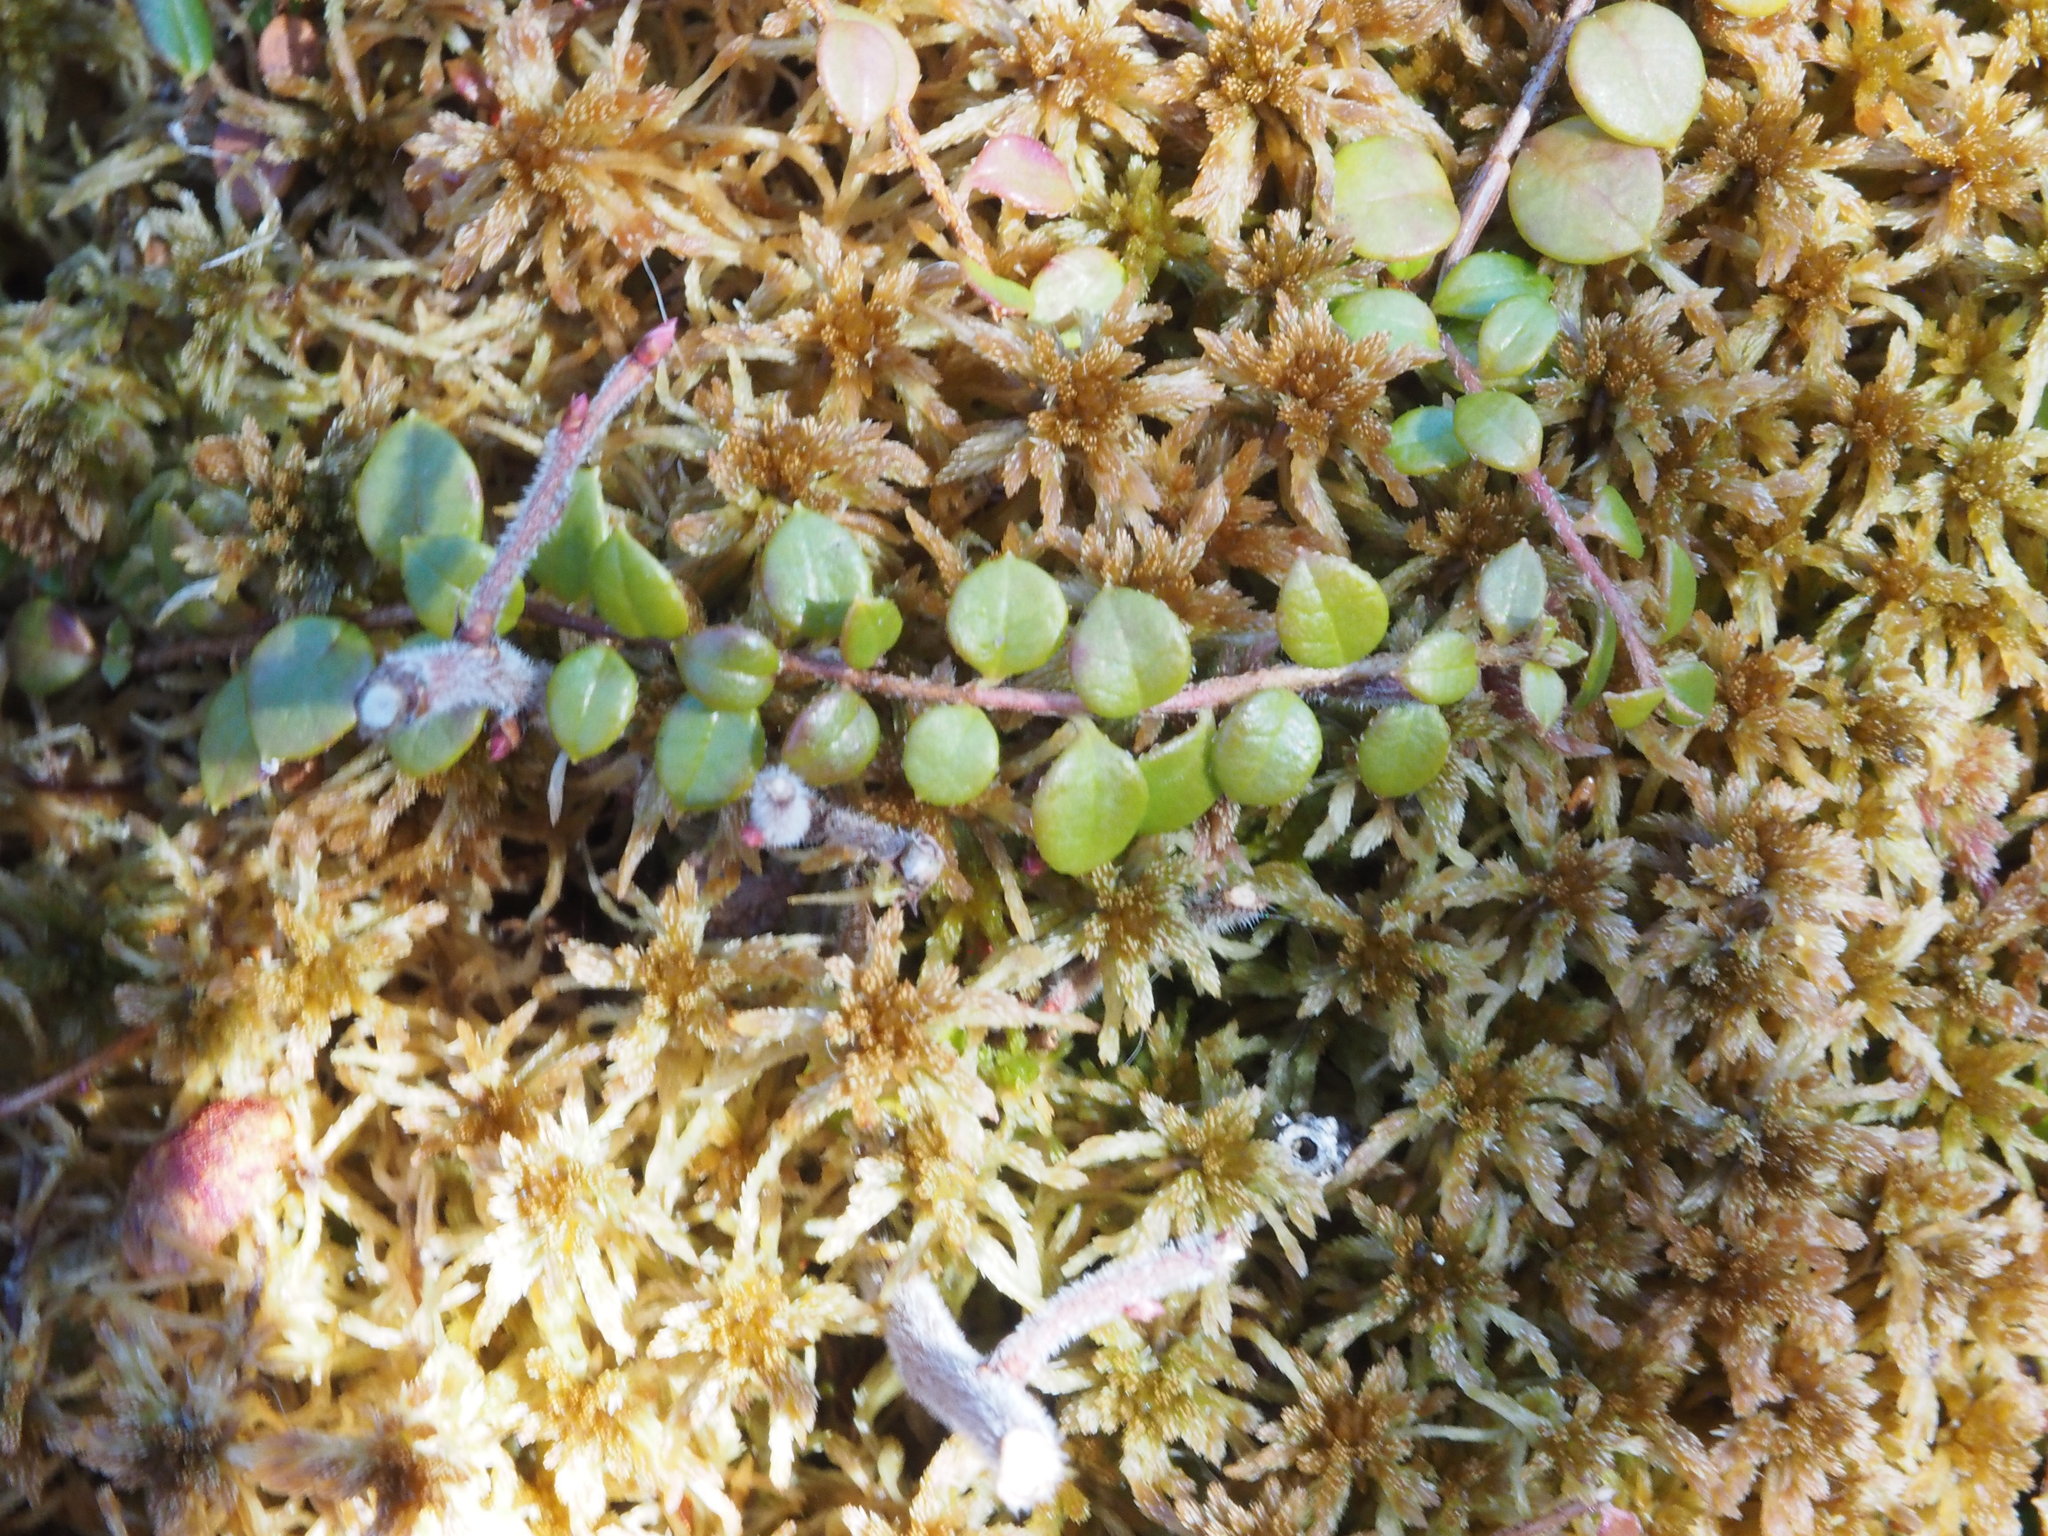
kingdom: Plantae
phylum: Tracheophyta
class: Magnoliopsida
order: Ericales
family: Ericaceae
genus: Gaultheria
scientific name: Gaultheria hispidula
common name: Cancer wintergreen
